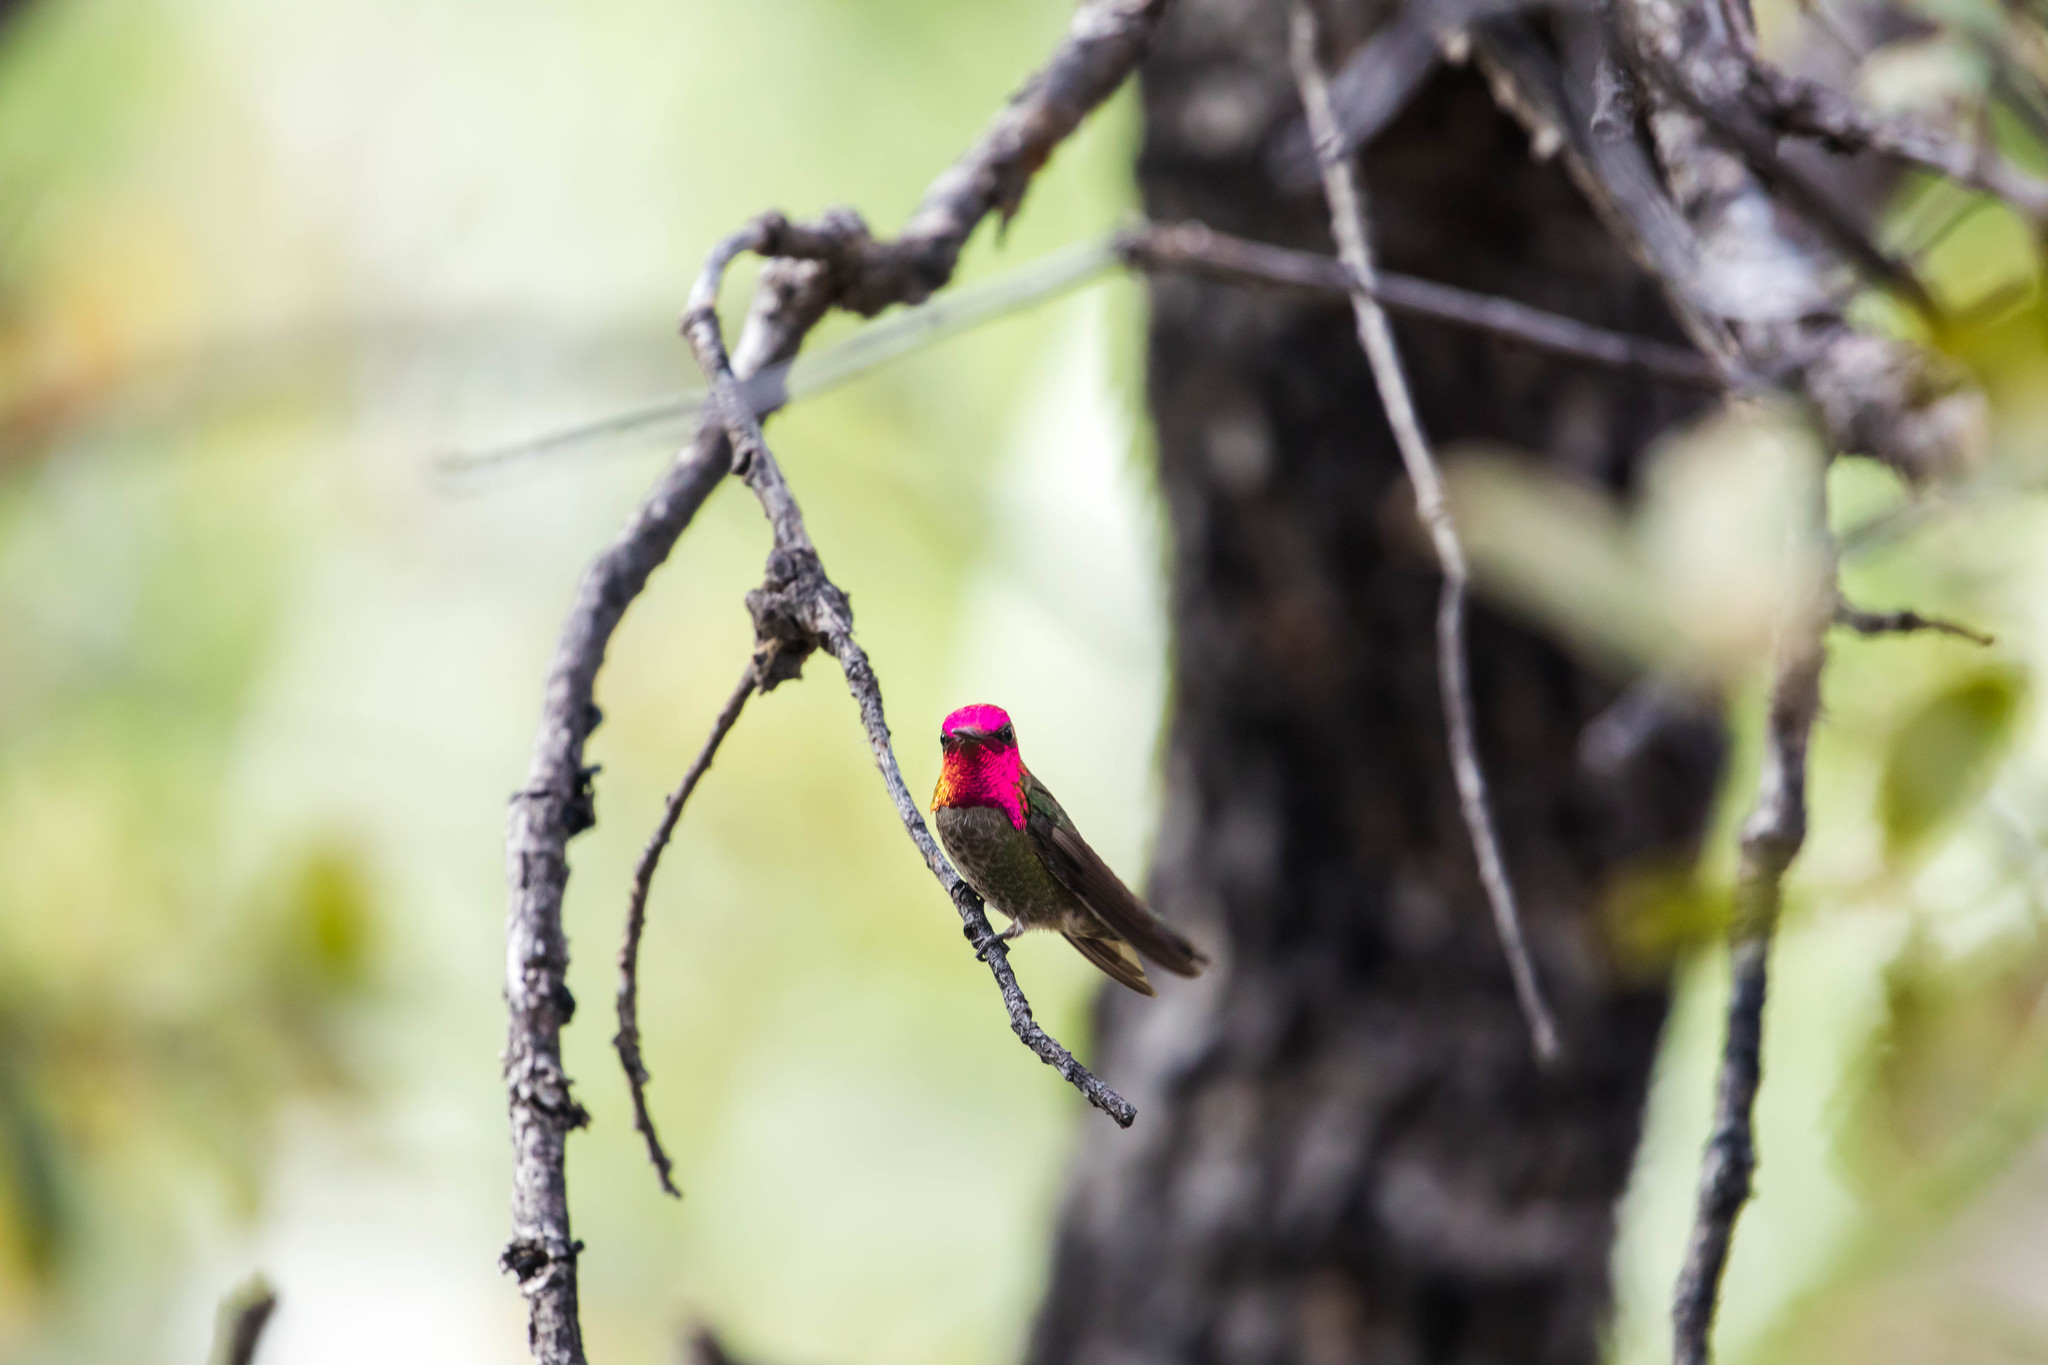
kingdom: Animalia
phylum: Chordata
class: Aves
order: Apodiformes
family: Trochilidae
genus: Calypte
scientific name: Calypte anna
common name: Anna's hummingbird
